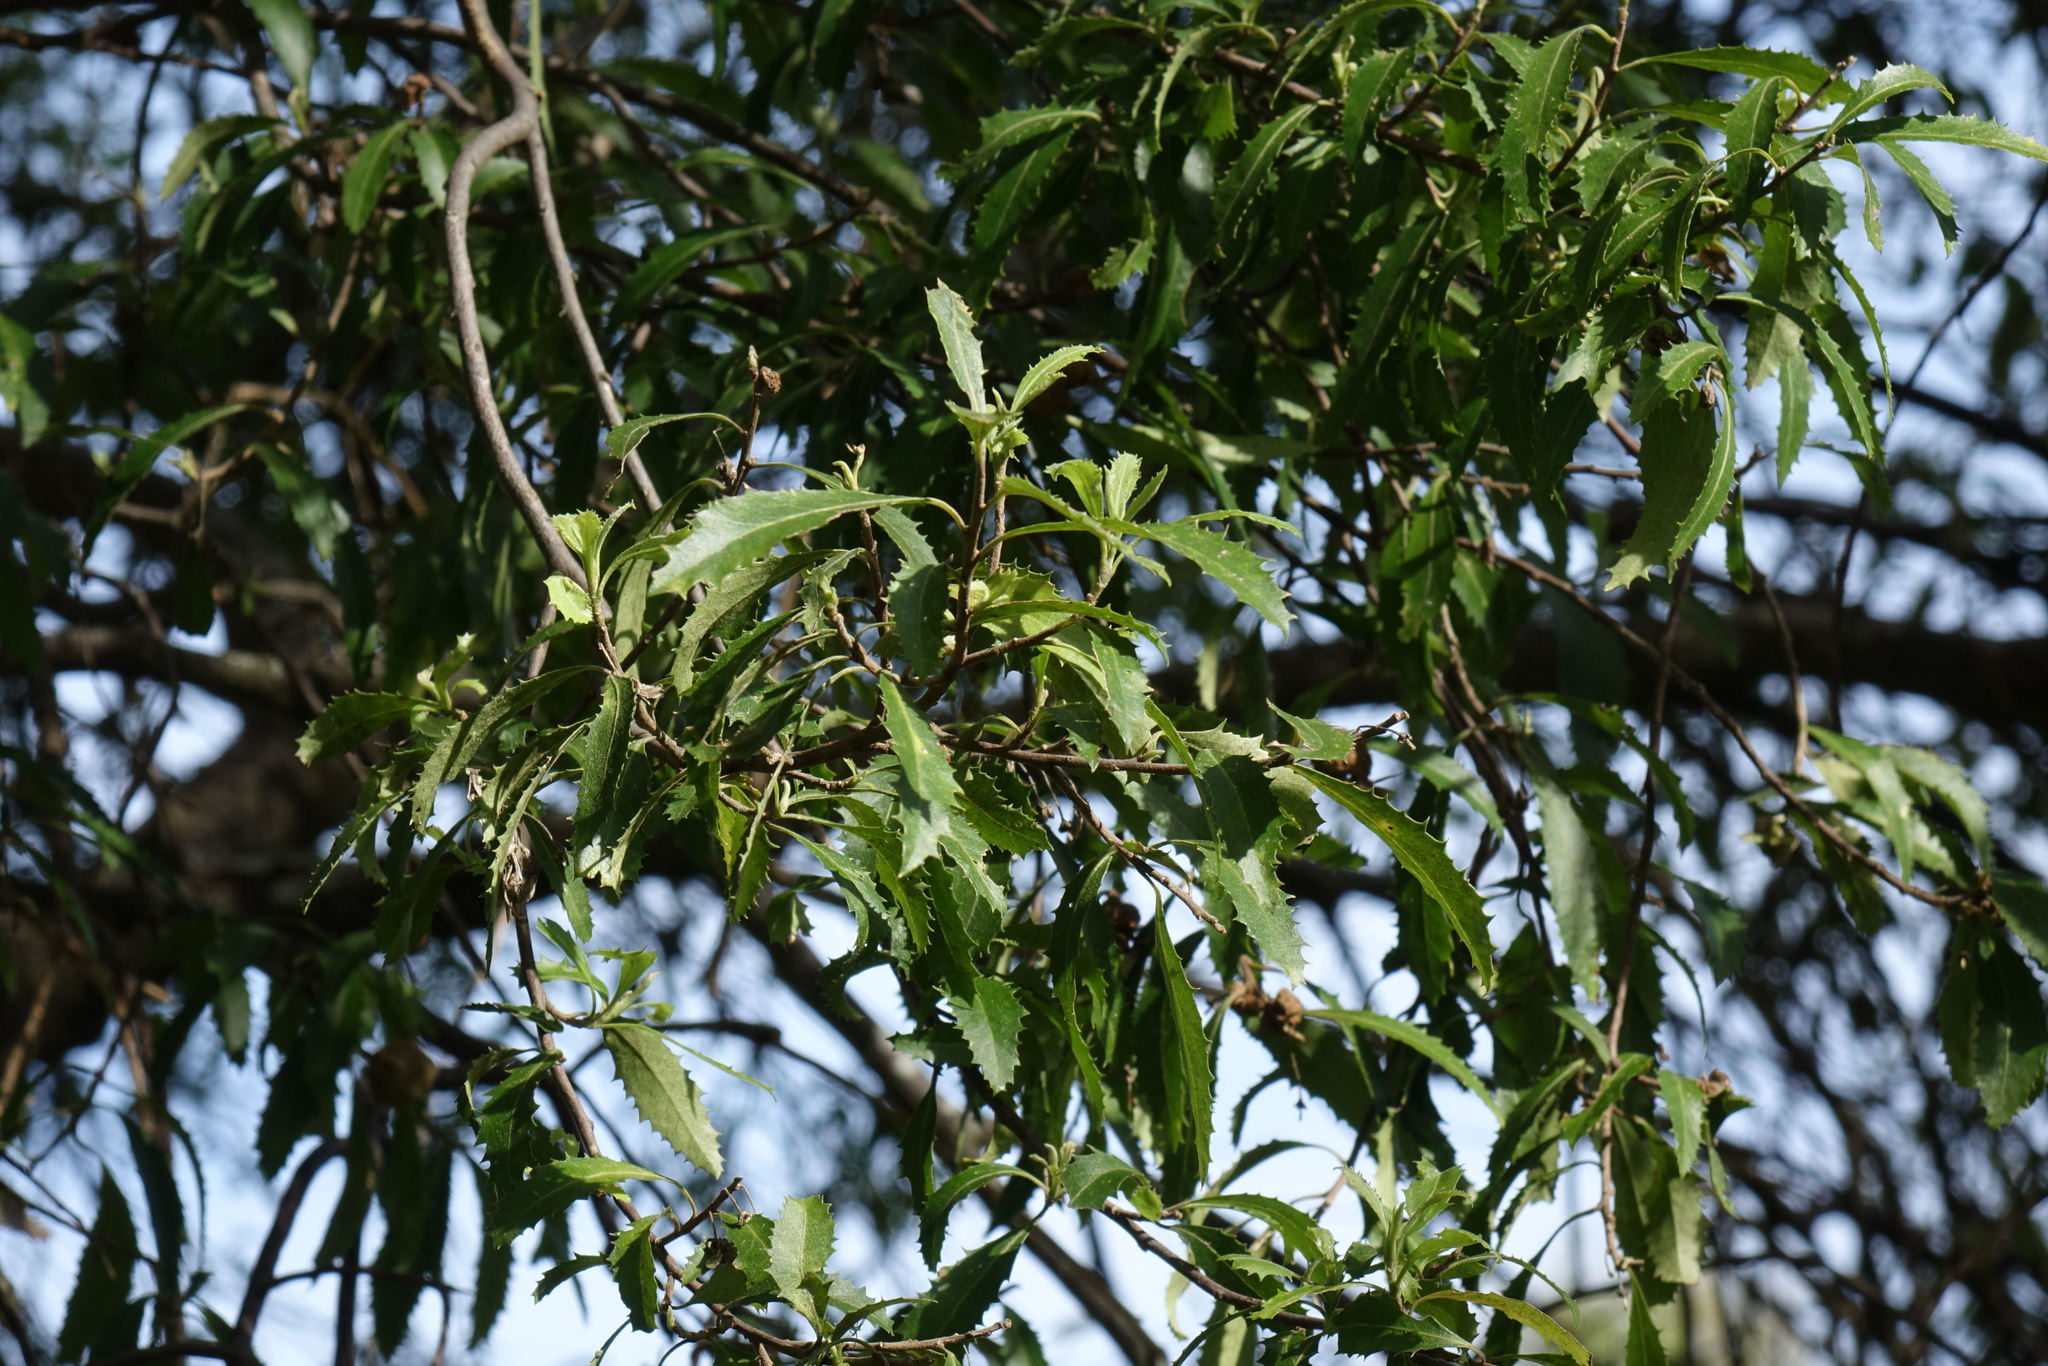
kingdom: Plantae
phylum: Tracheophyta
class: Magnoliopsida
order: Malvales
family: Malvaceae
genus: Hoheria
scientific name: Hoheria angustifolia
